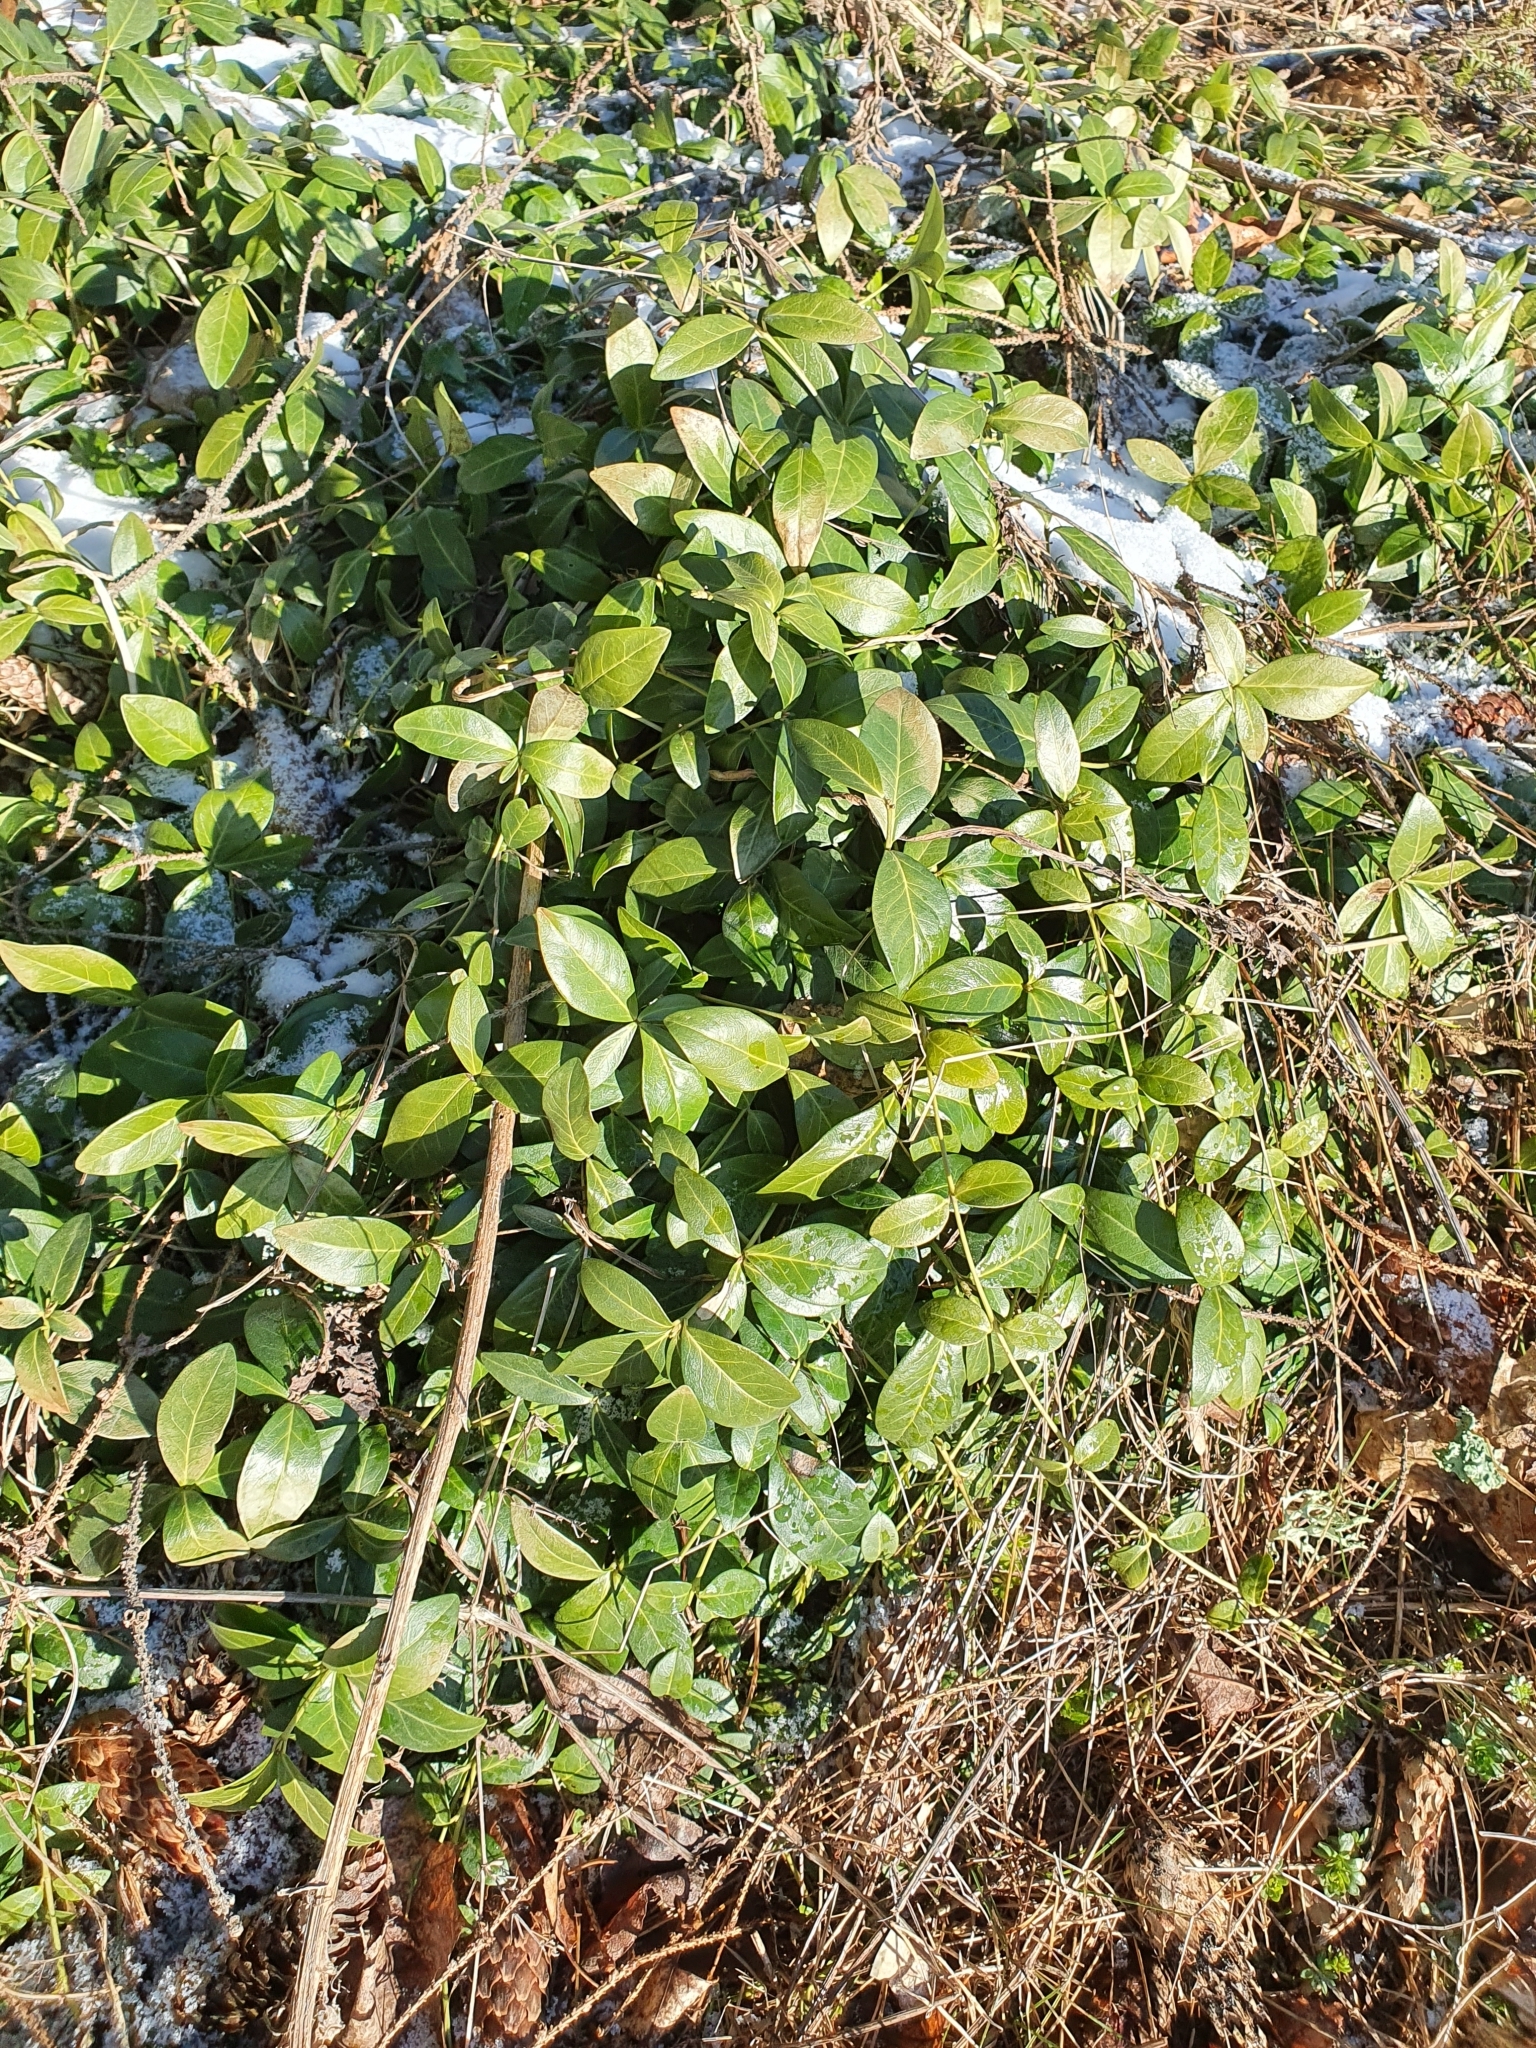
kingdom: Plantae
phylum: Tracheophyta
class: Magnoliopsida
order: Gentianales
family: Apocynaceae
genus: Vinca
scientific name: Vinca minor
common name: Lesser periwinkle
